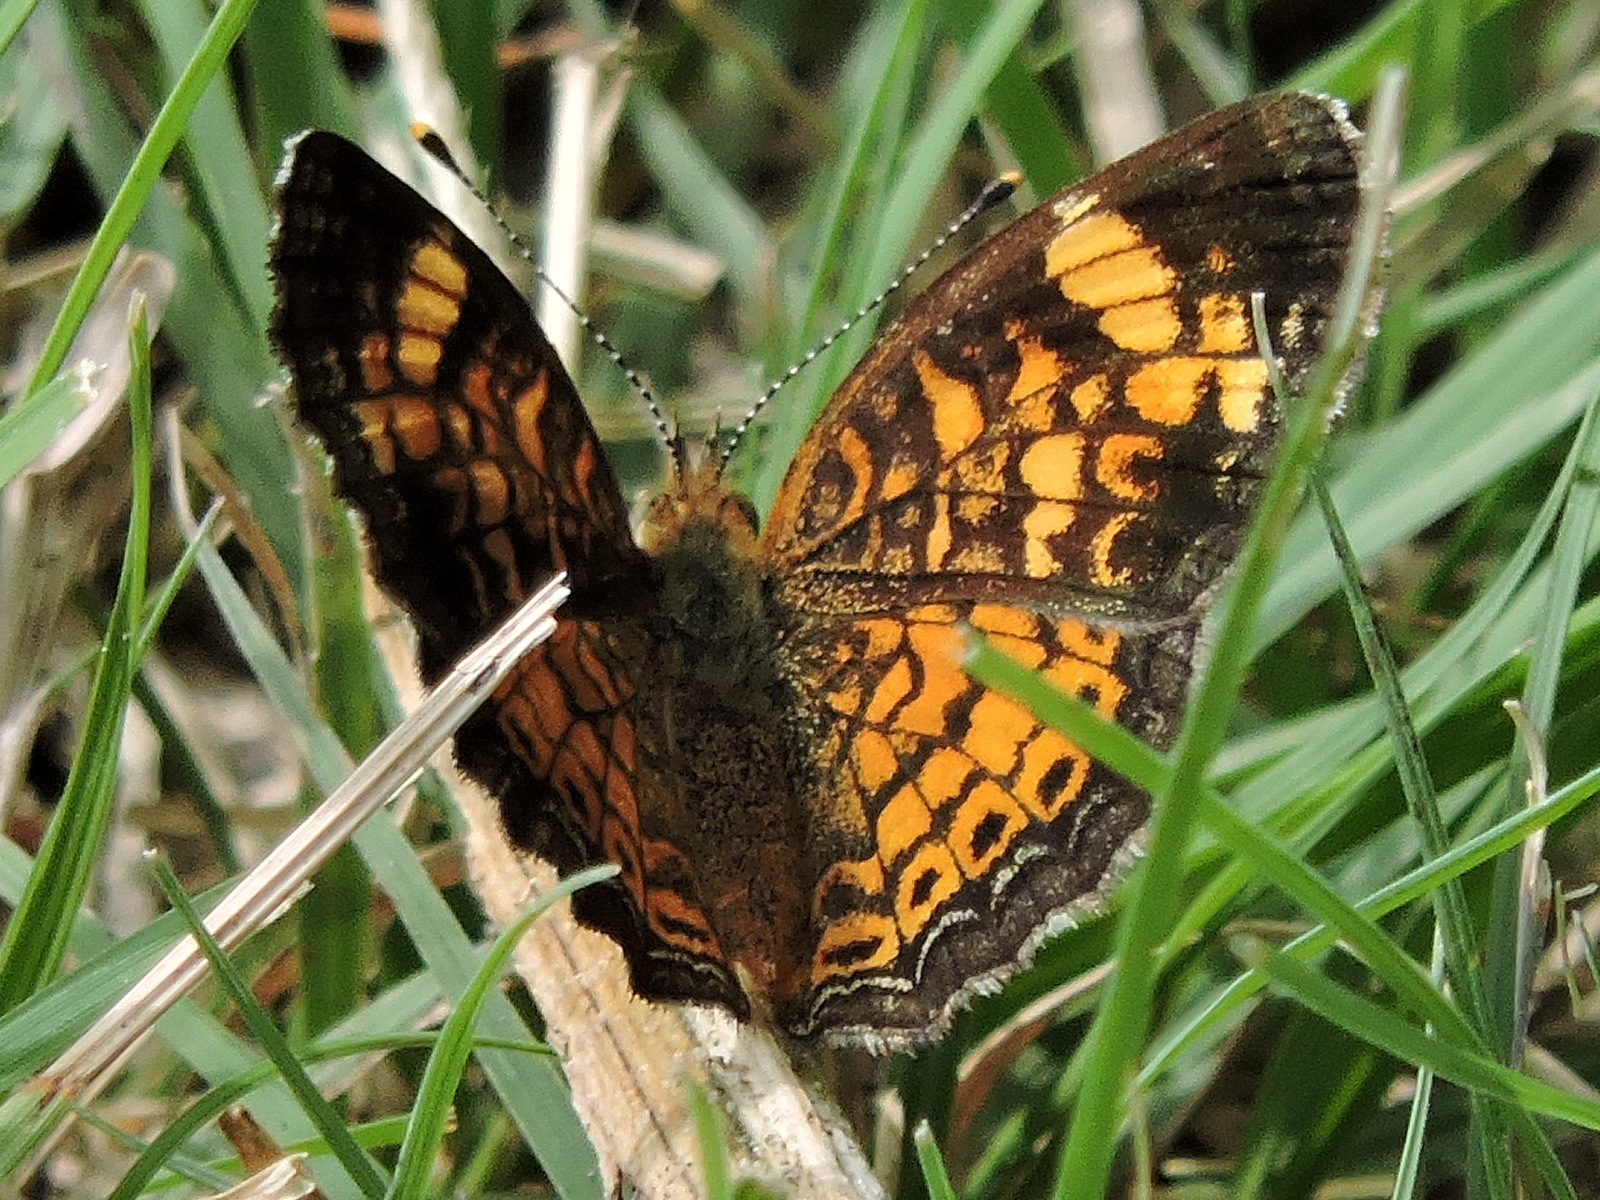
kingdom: Animalia
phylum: Arthropoda
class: Insecta
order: Lepidoptera
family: Nymphalidae
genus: Phyciodes
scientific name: Phyciodes tharos
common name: Pearl crescent
